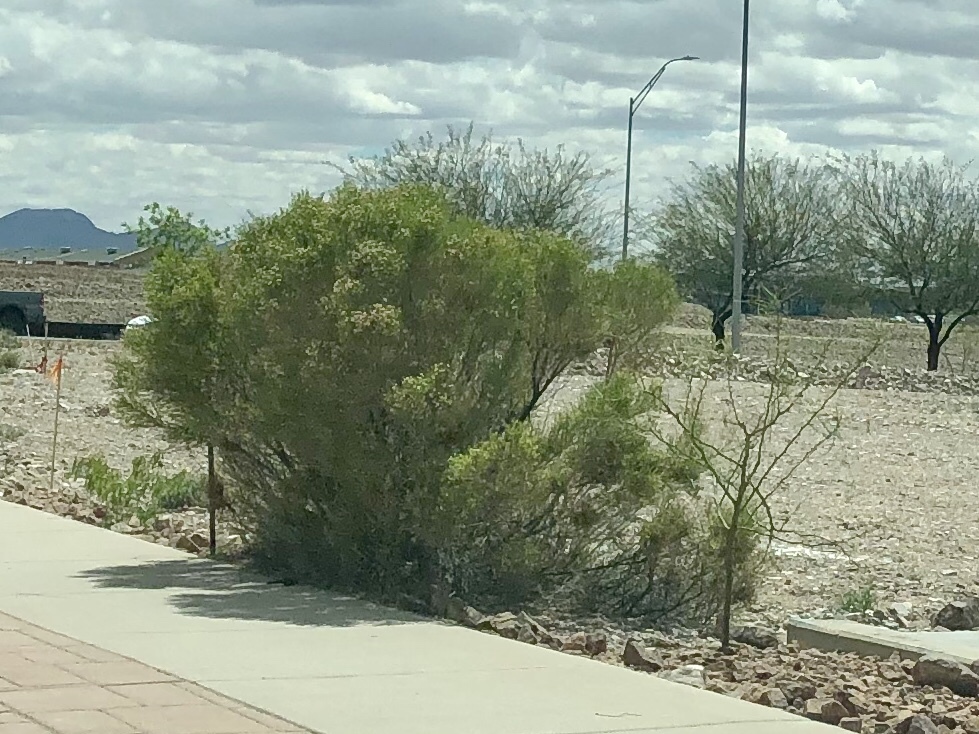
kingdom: Plantae
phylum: Tracheophyta
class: Magnoliopsida
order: Asterales
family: Asteraceae
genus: Baccharis
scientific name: Baccharis sarothroides
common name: Desert-broom
